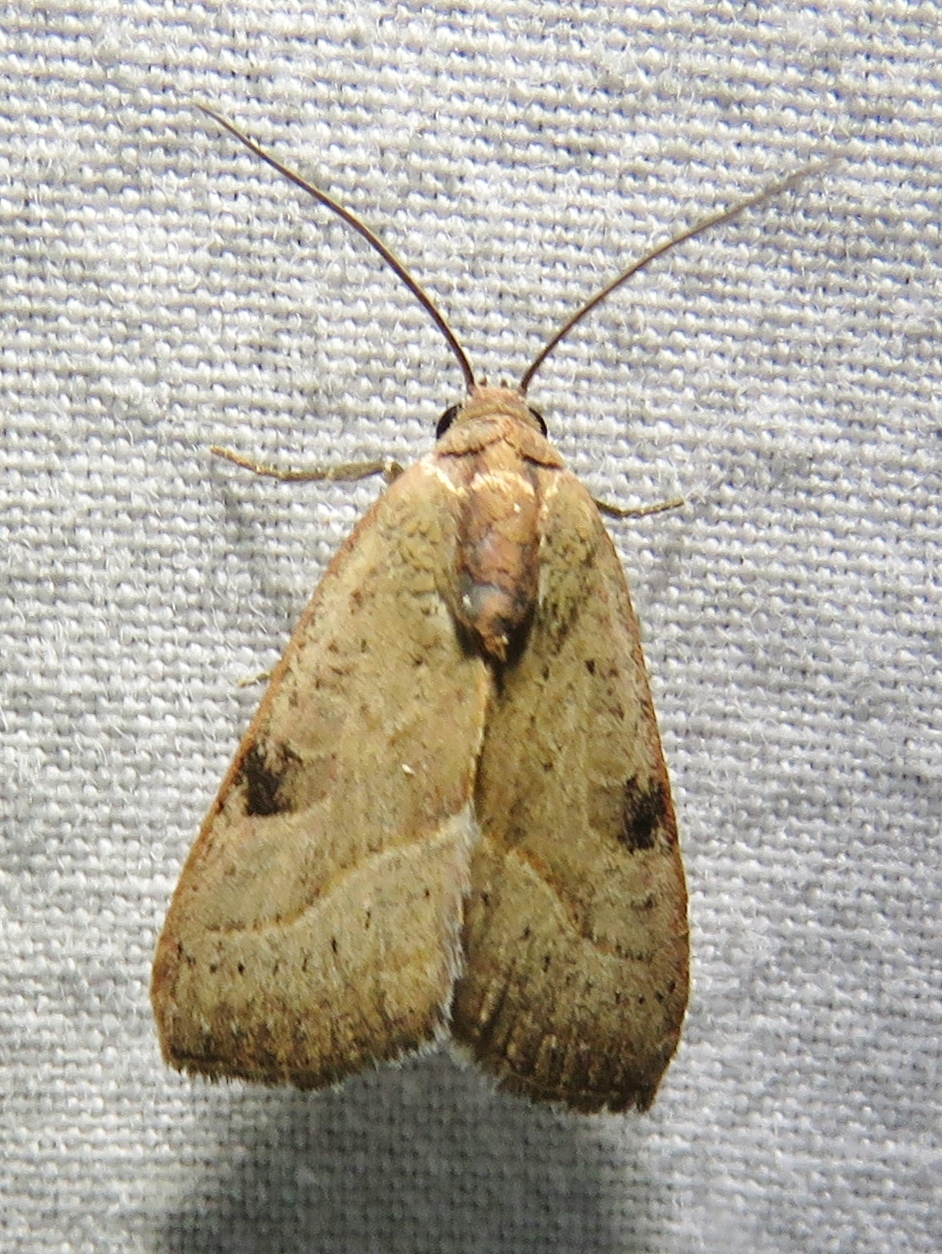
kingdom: Animalia
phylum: Arthropoda
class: Insecta
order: Lepidoptera
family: Noctuidae
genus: Galgula
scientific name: Galgula partita
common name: Wedgeling
